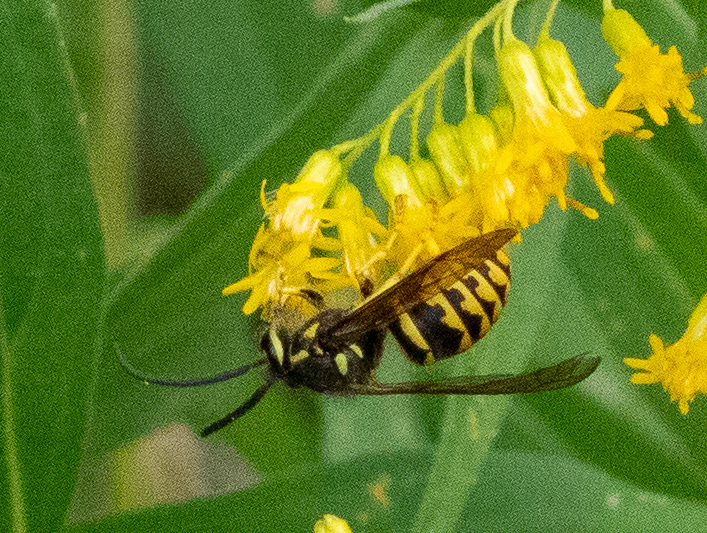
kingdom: Animalia
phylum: Arthropoda
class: Insecta
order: Hymenoptera
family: Vespidae
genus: Dolichovespula
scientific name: Dolichovespula arenaria
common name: Aerial yellowjacket
